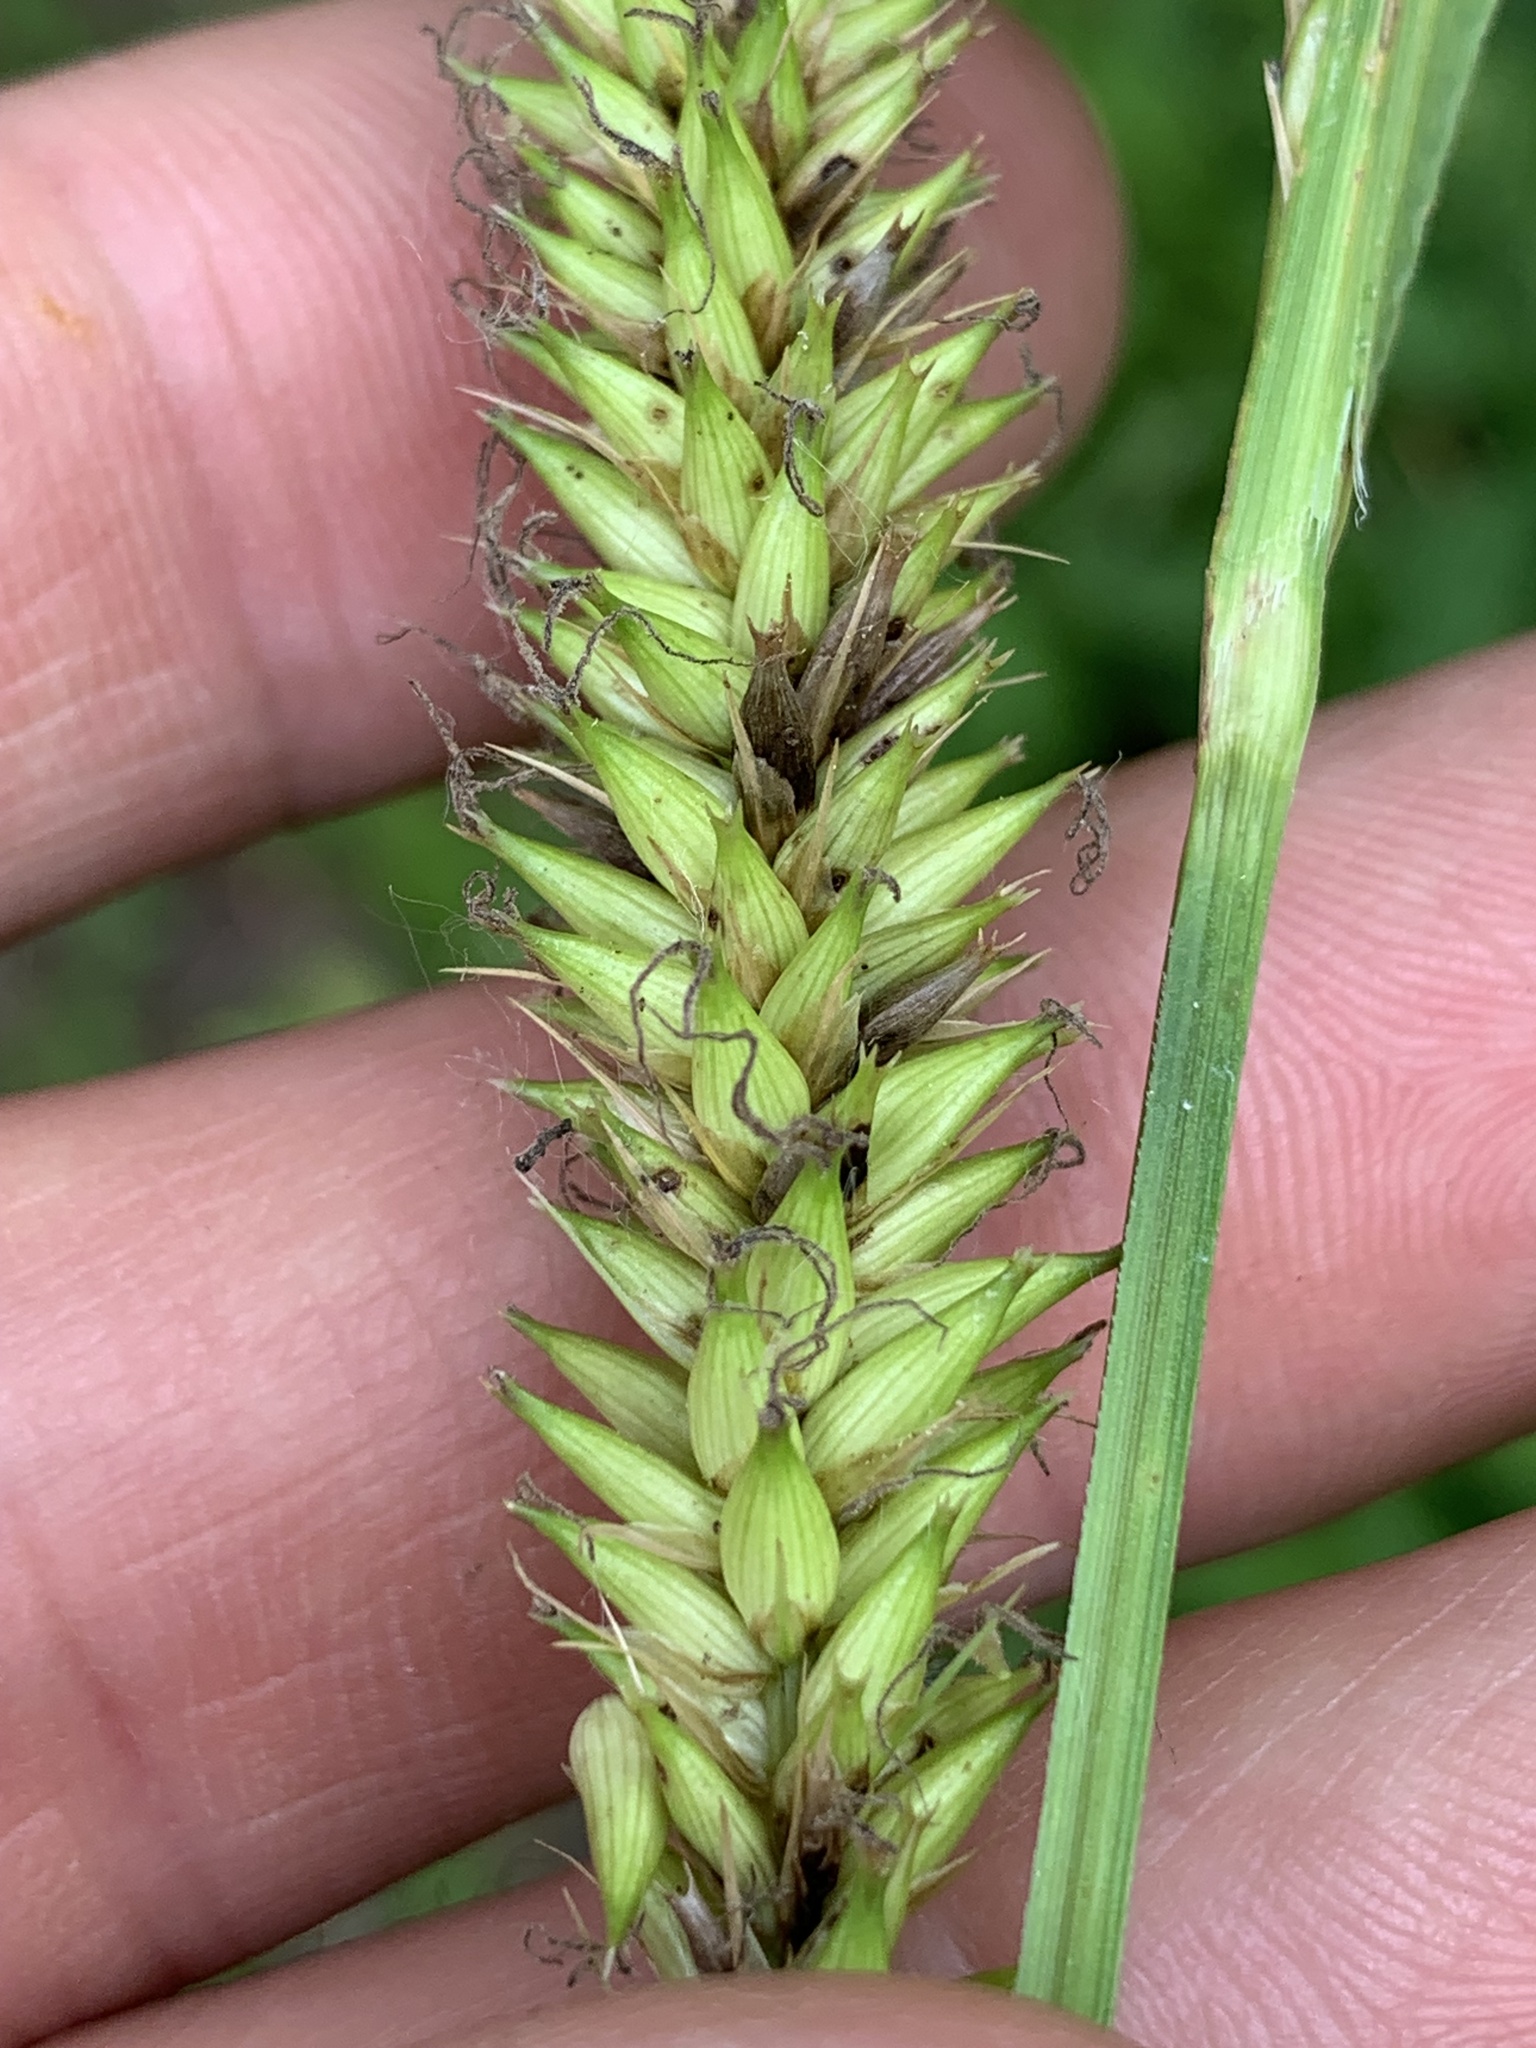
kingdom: Plantae
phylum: Tracheophyta
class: Liliopsida
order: Poales
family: Cyperaceae
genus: Carex
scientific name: Carex lacustris
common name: Common lake sedge
